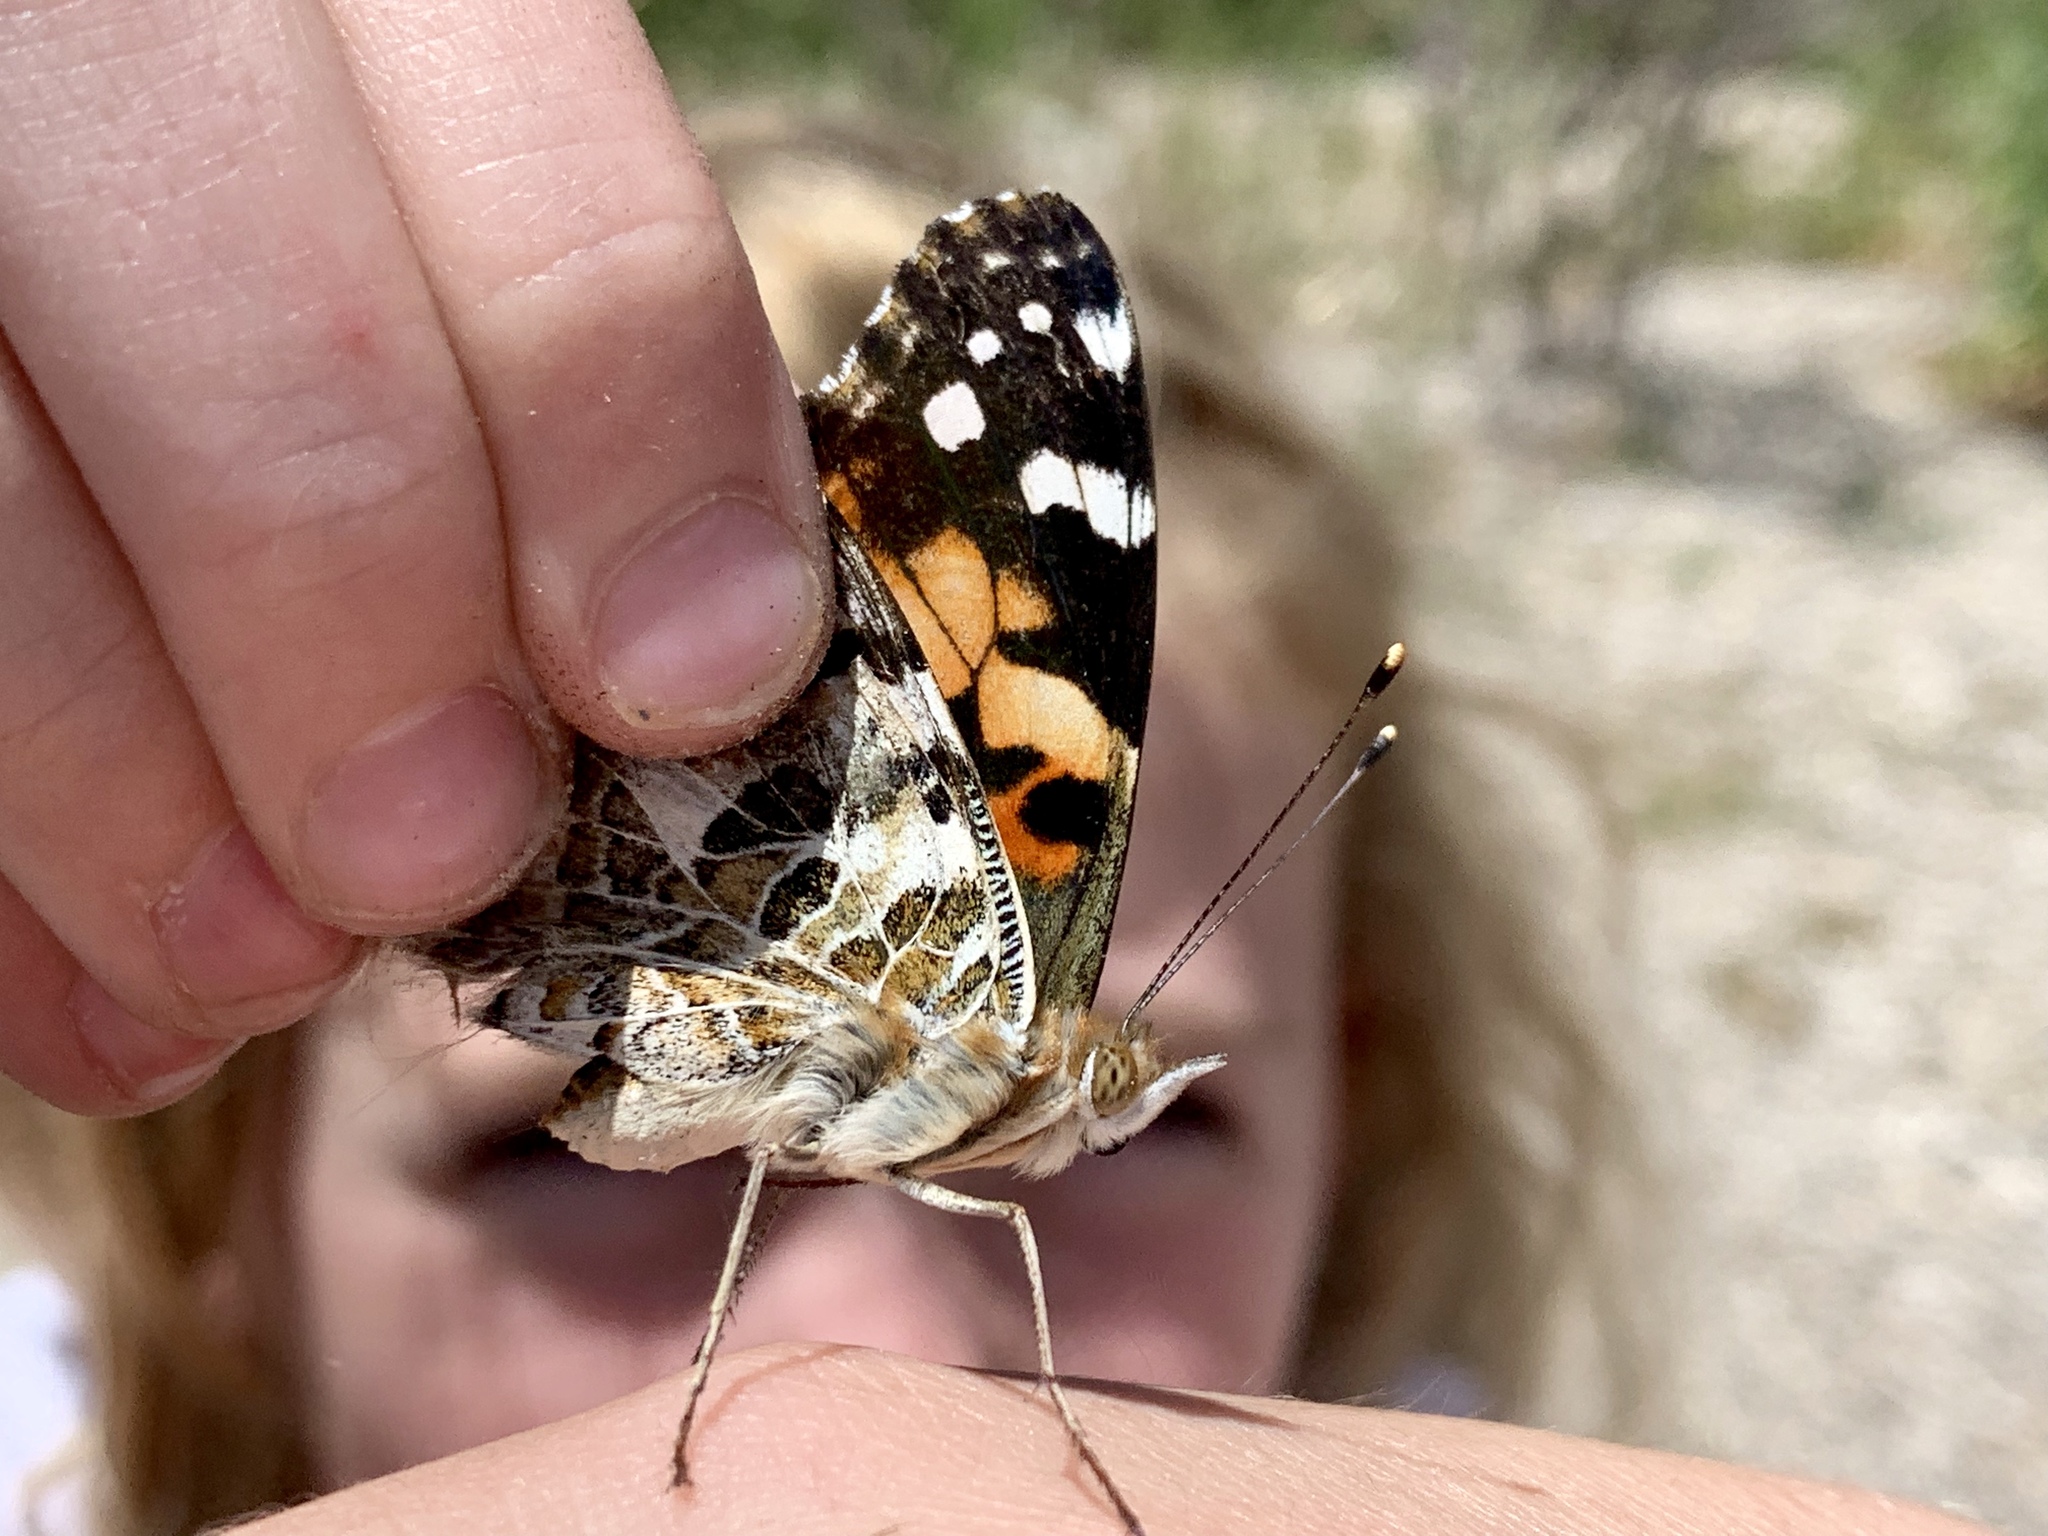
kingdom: Animalia
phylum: Arthropoda
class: Insecta
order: Lepidoptera
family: Nymphalidae
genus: Vanessa
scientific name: Vanessa cardui
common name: Painted lady
